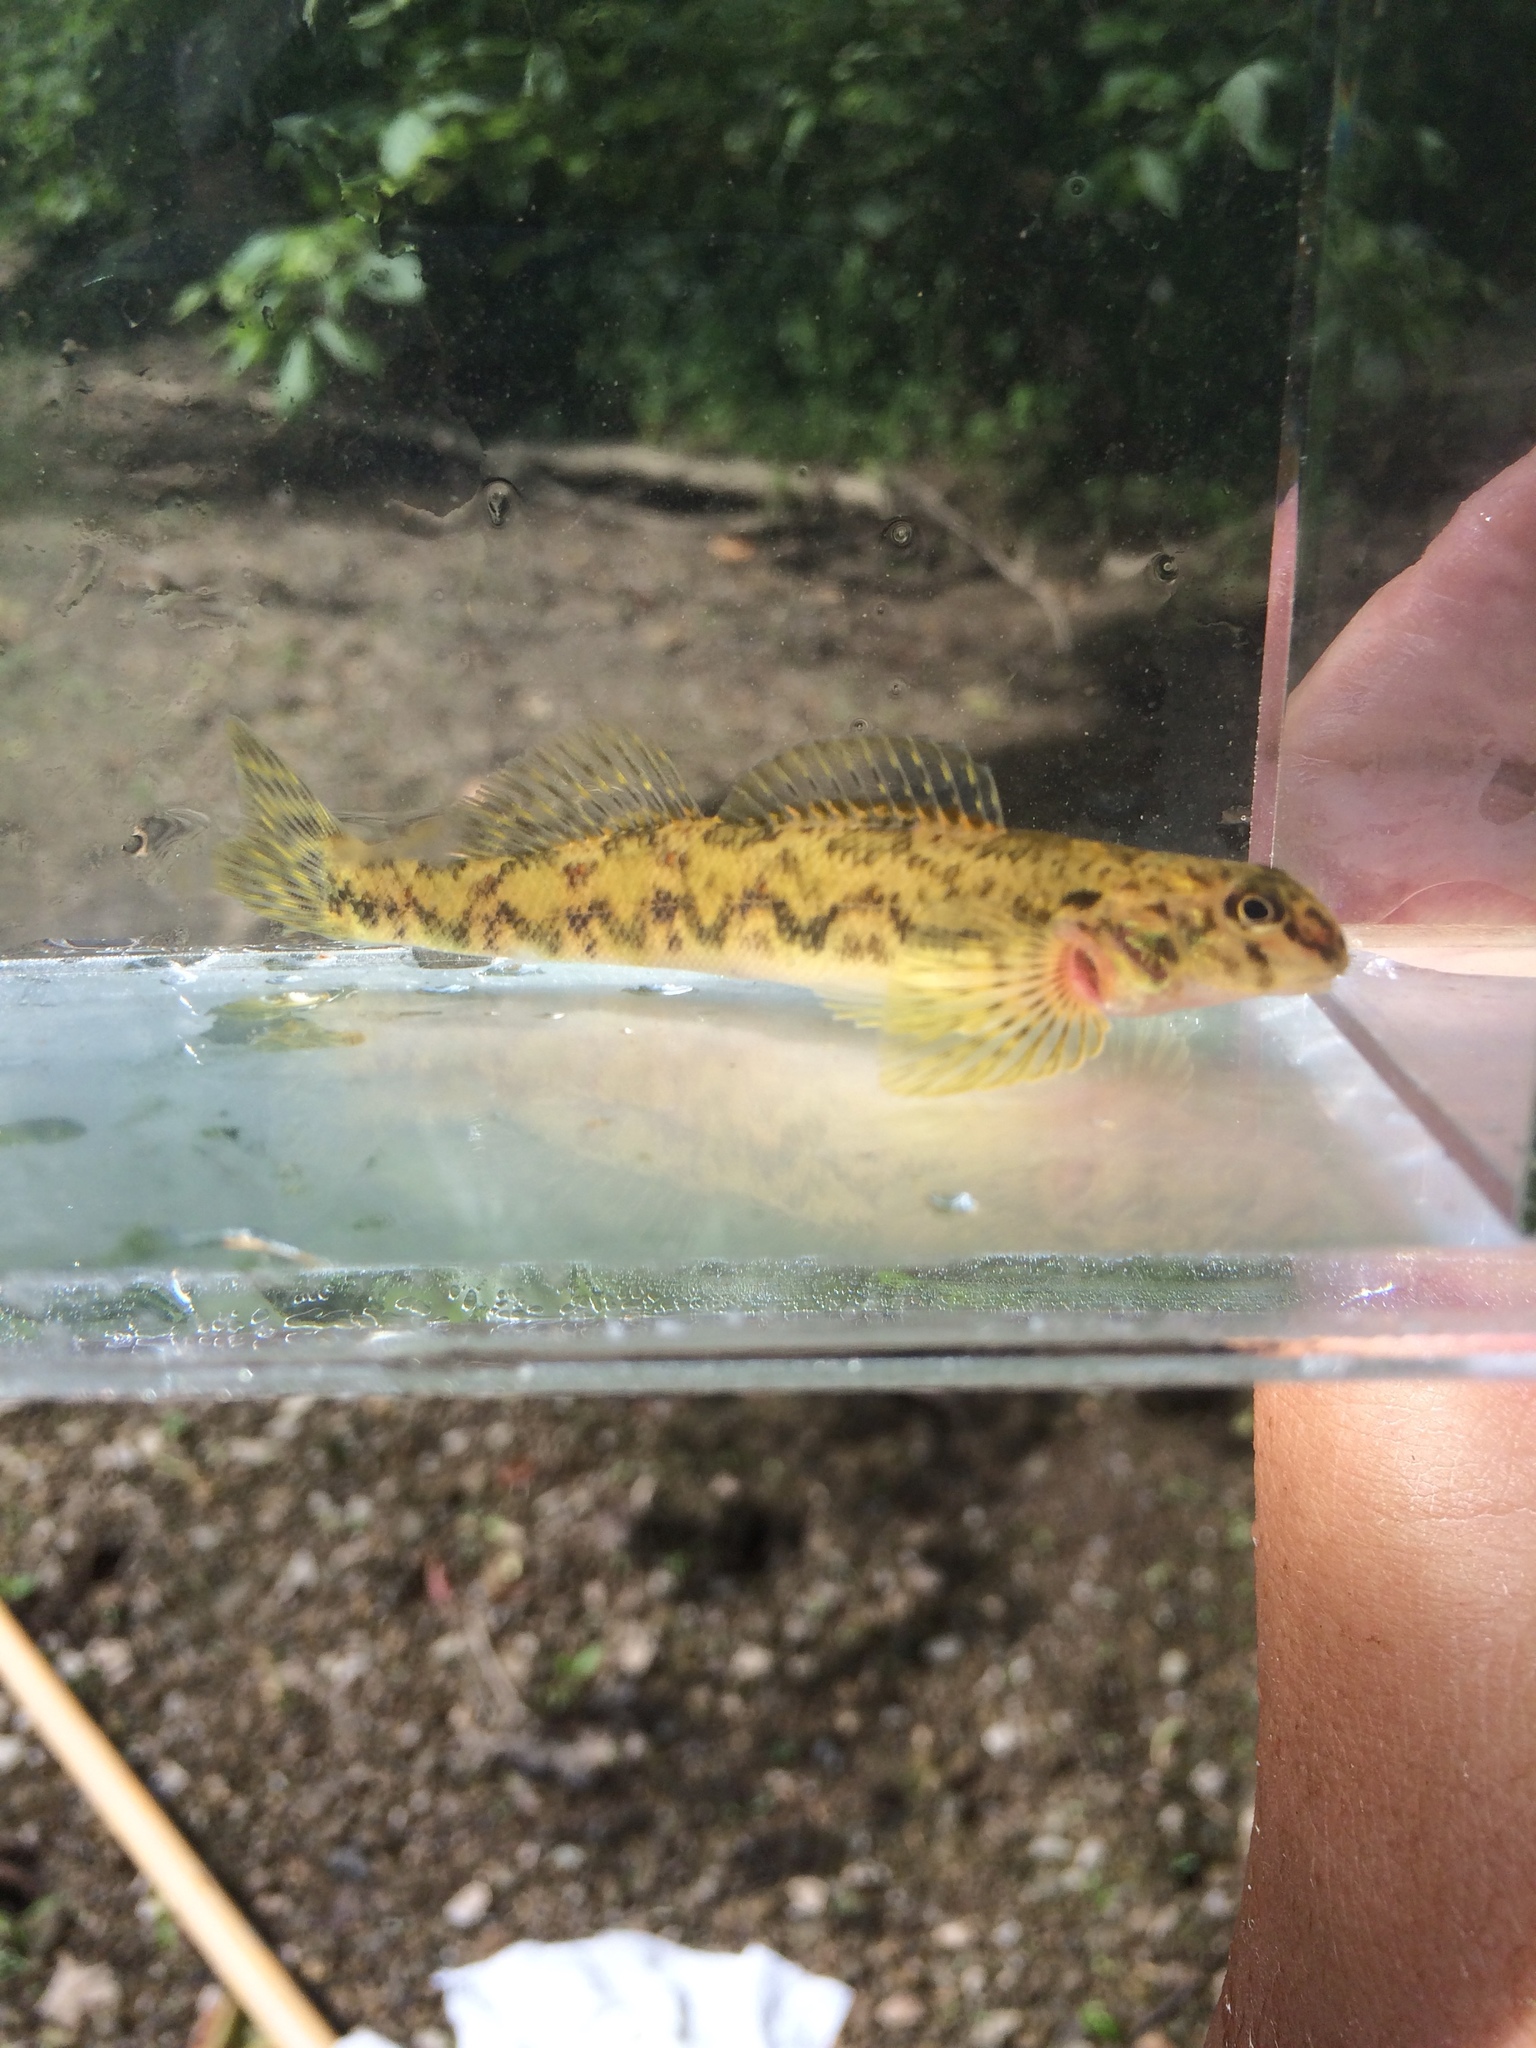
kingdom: Animalia
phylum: Chordata
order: Perciformes
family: Percidae
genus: Etheostoma
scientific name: Etheostoma blennioides
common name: Greenside darter
